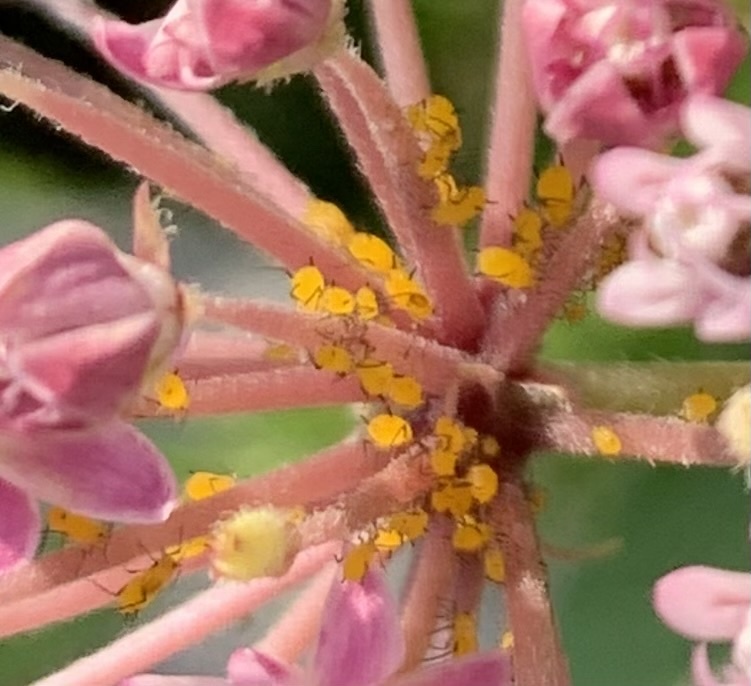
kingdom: Animalia
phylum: Arthropoda
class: Insecta
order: Hemiptera
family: Aphididae
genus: Aphis
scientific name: Aphis nerii
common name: Oleander aphid
